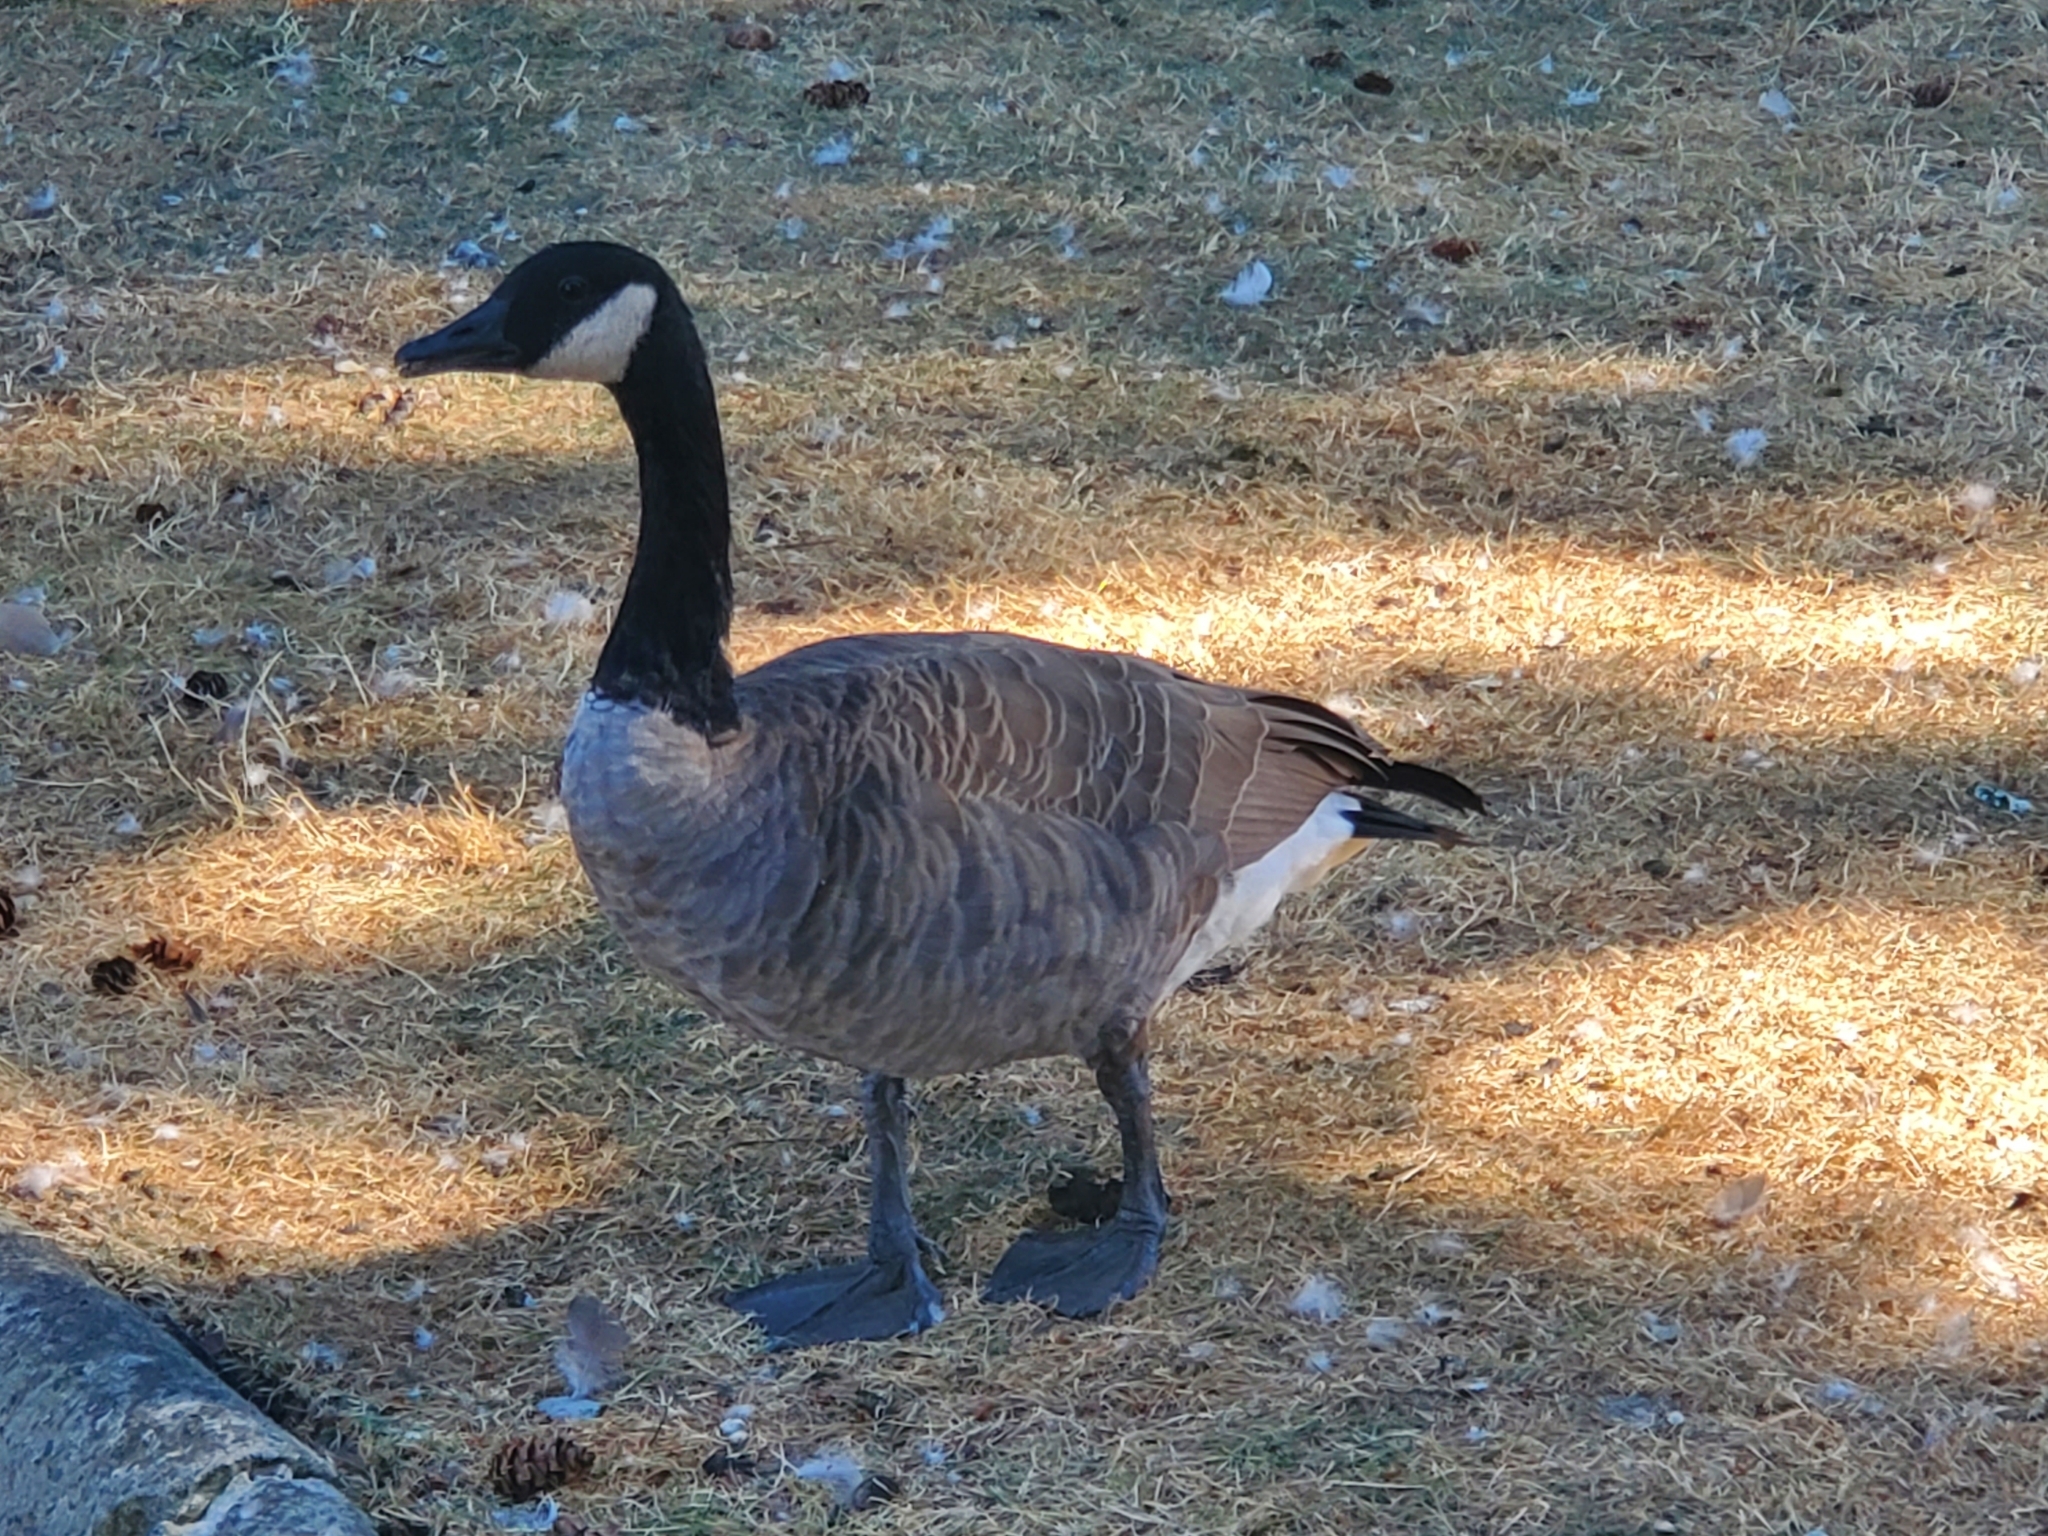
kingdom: Animalia
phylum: Chordata
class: Aves
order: Anseriformes
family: Anatidae
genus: Branta
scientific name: Branta canadensis
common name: Canada goose
